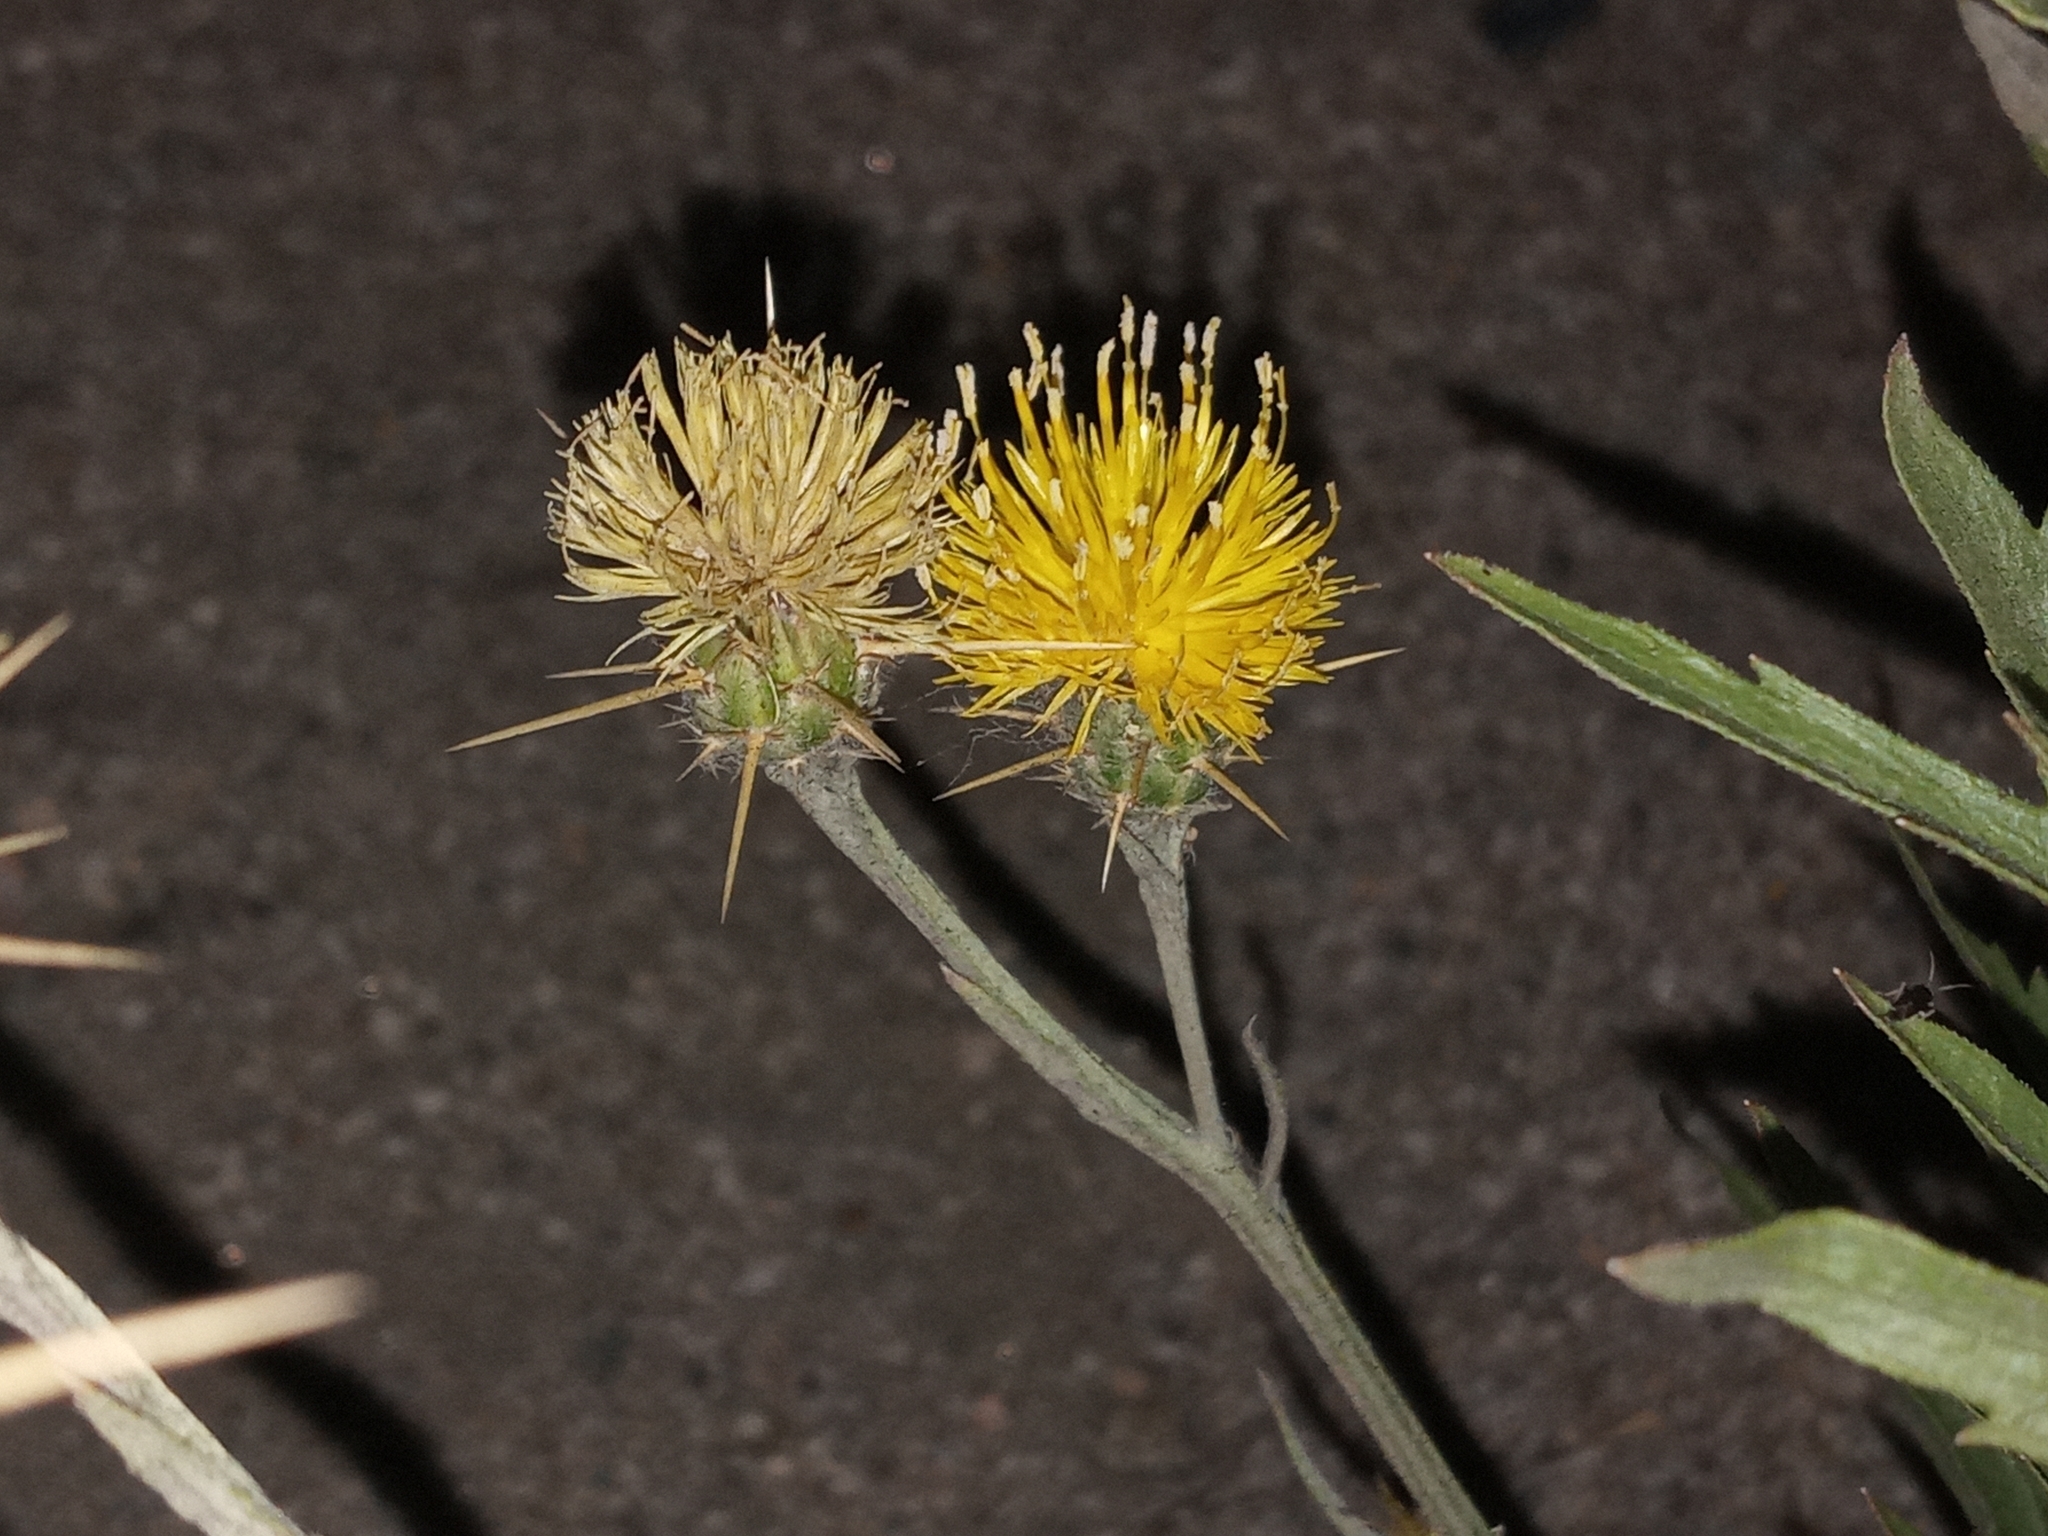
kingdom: Plantae
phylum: Tracheophyta
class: Magnoliopsida
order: Asterales
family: Asteraceae
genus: Centaurea
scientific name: Centaurea solstitialis
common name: Yellow star-thistle
